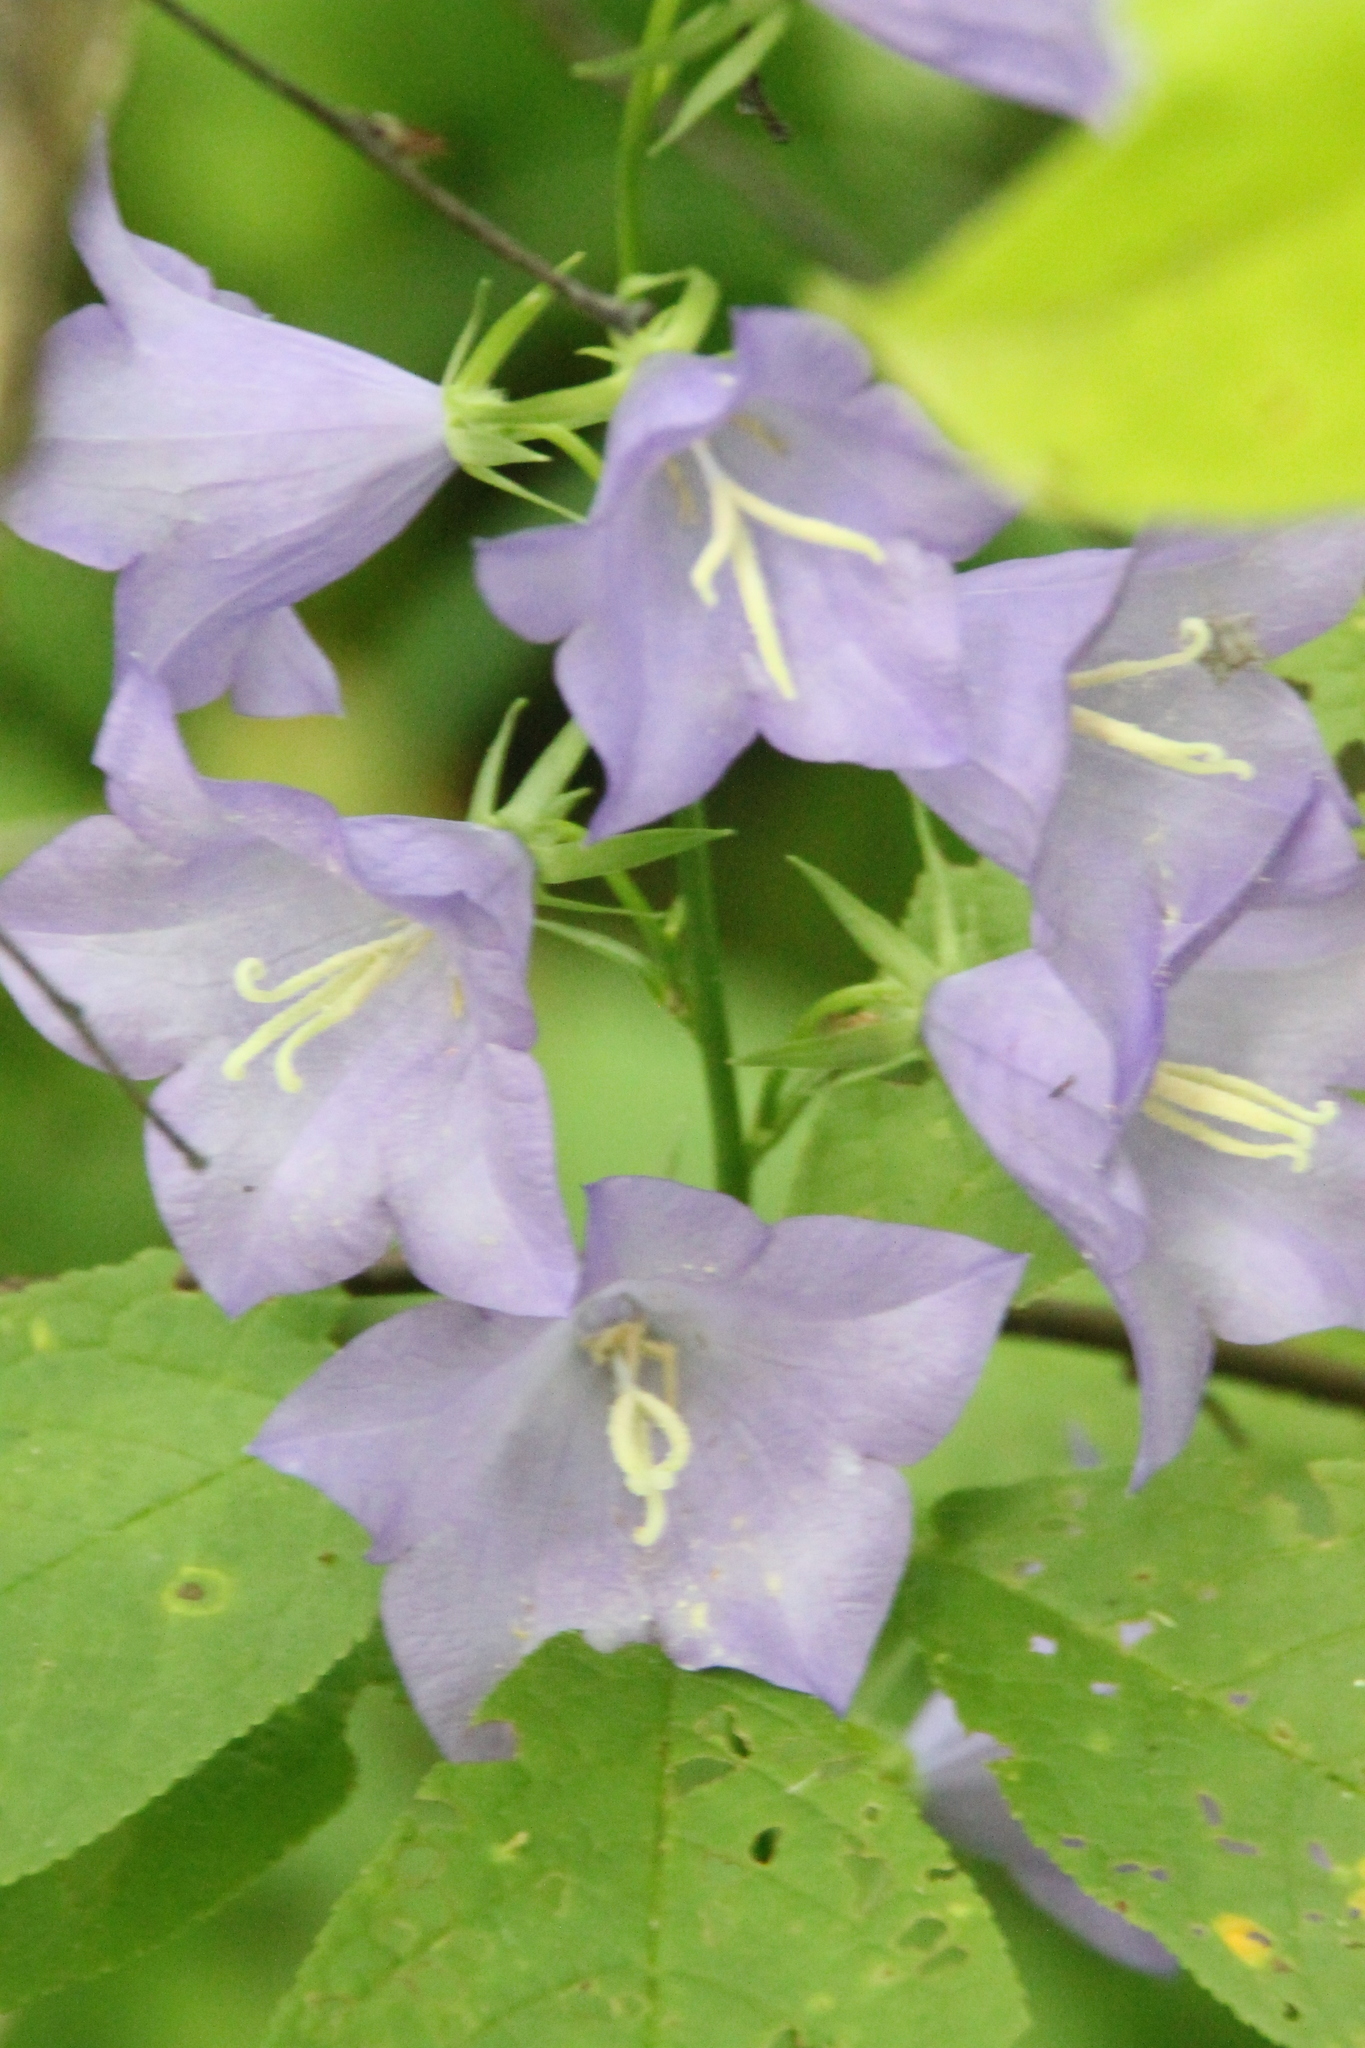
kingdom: Plantae
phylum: Tracheophyta
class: Magnoliopsida
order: Asterales
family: Campanulaceae
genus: Campanula
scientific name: Campanula persicifolia
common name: Peach-leaved bellflower
